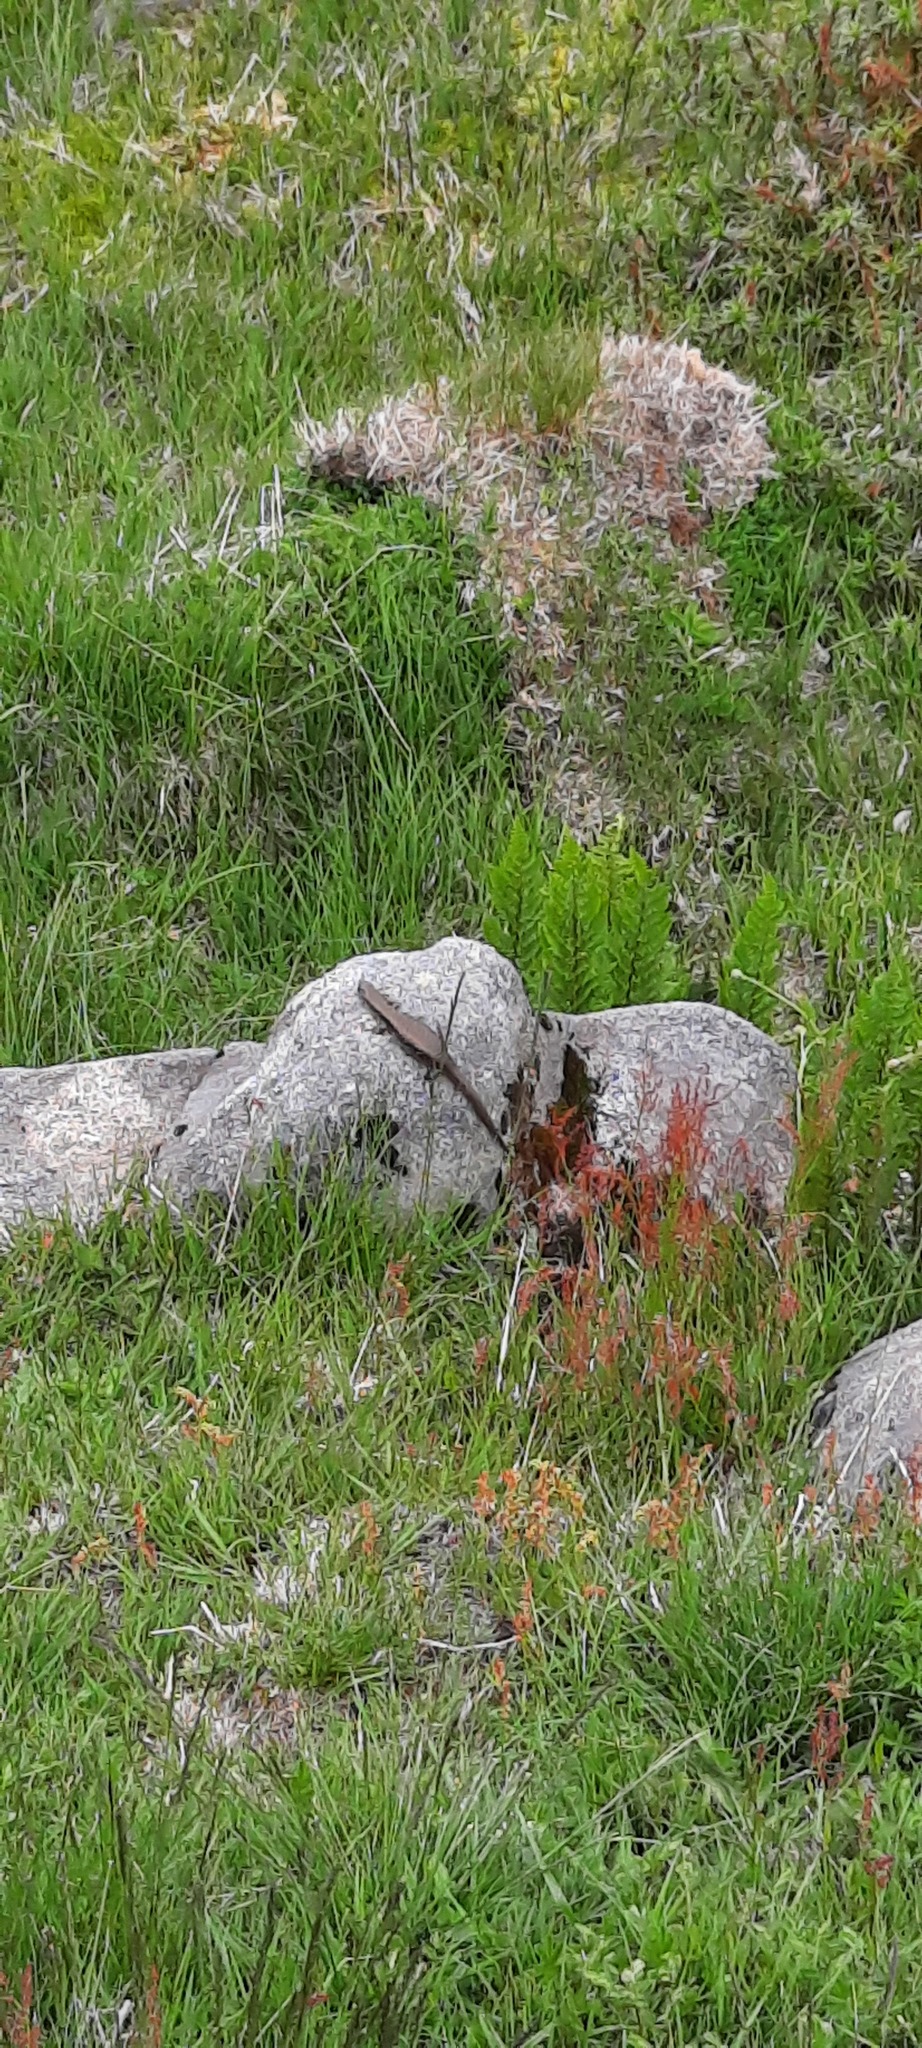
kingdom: Animalia
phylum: Chordata
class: Squamata
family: Scincidae
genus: Eulamprus
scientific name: Eulamprus tympanum
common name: Cool-temperate water-skink
